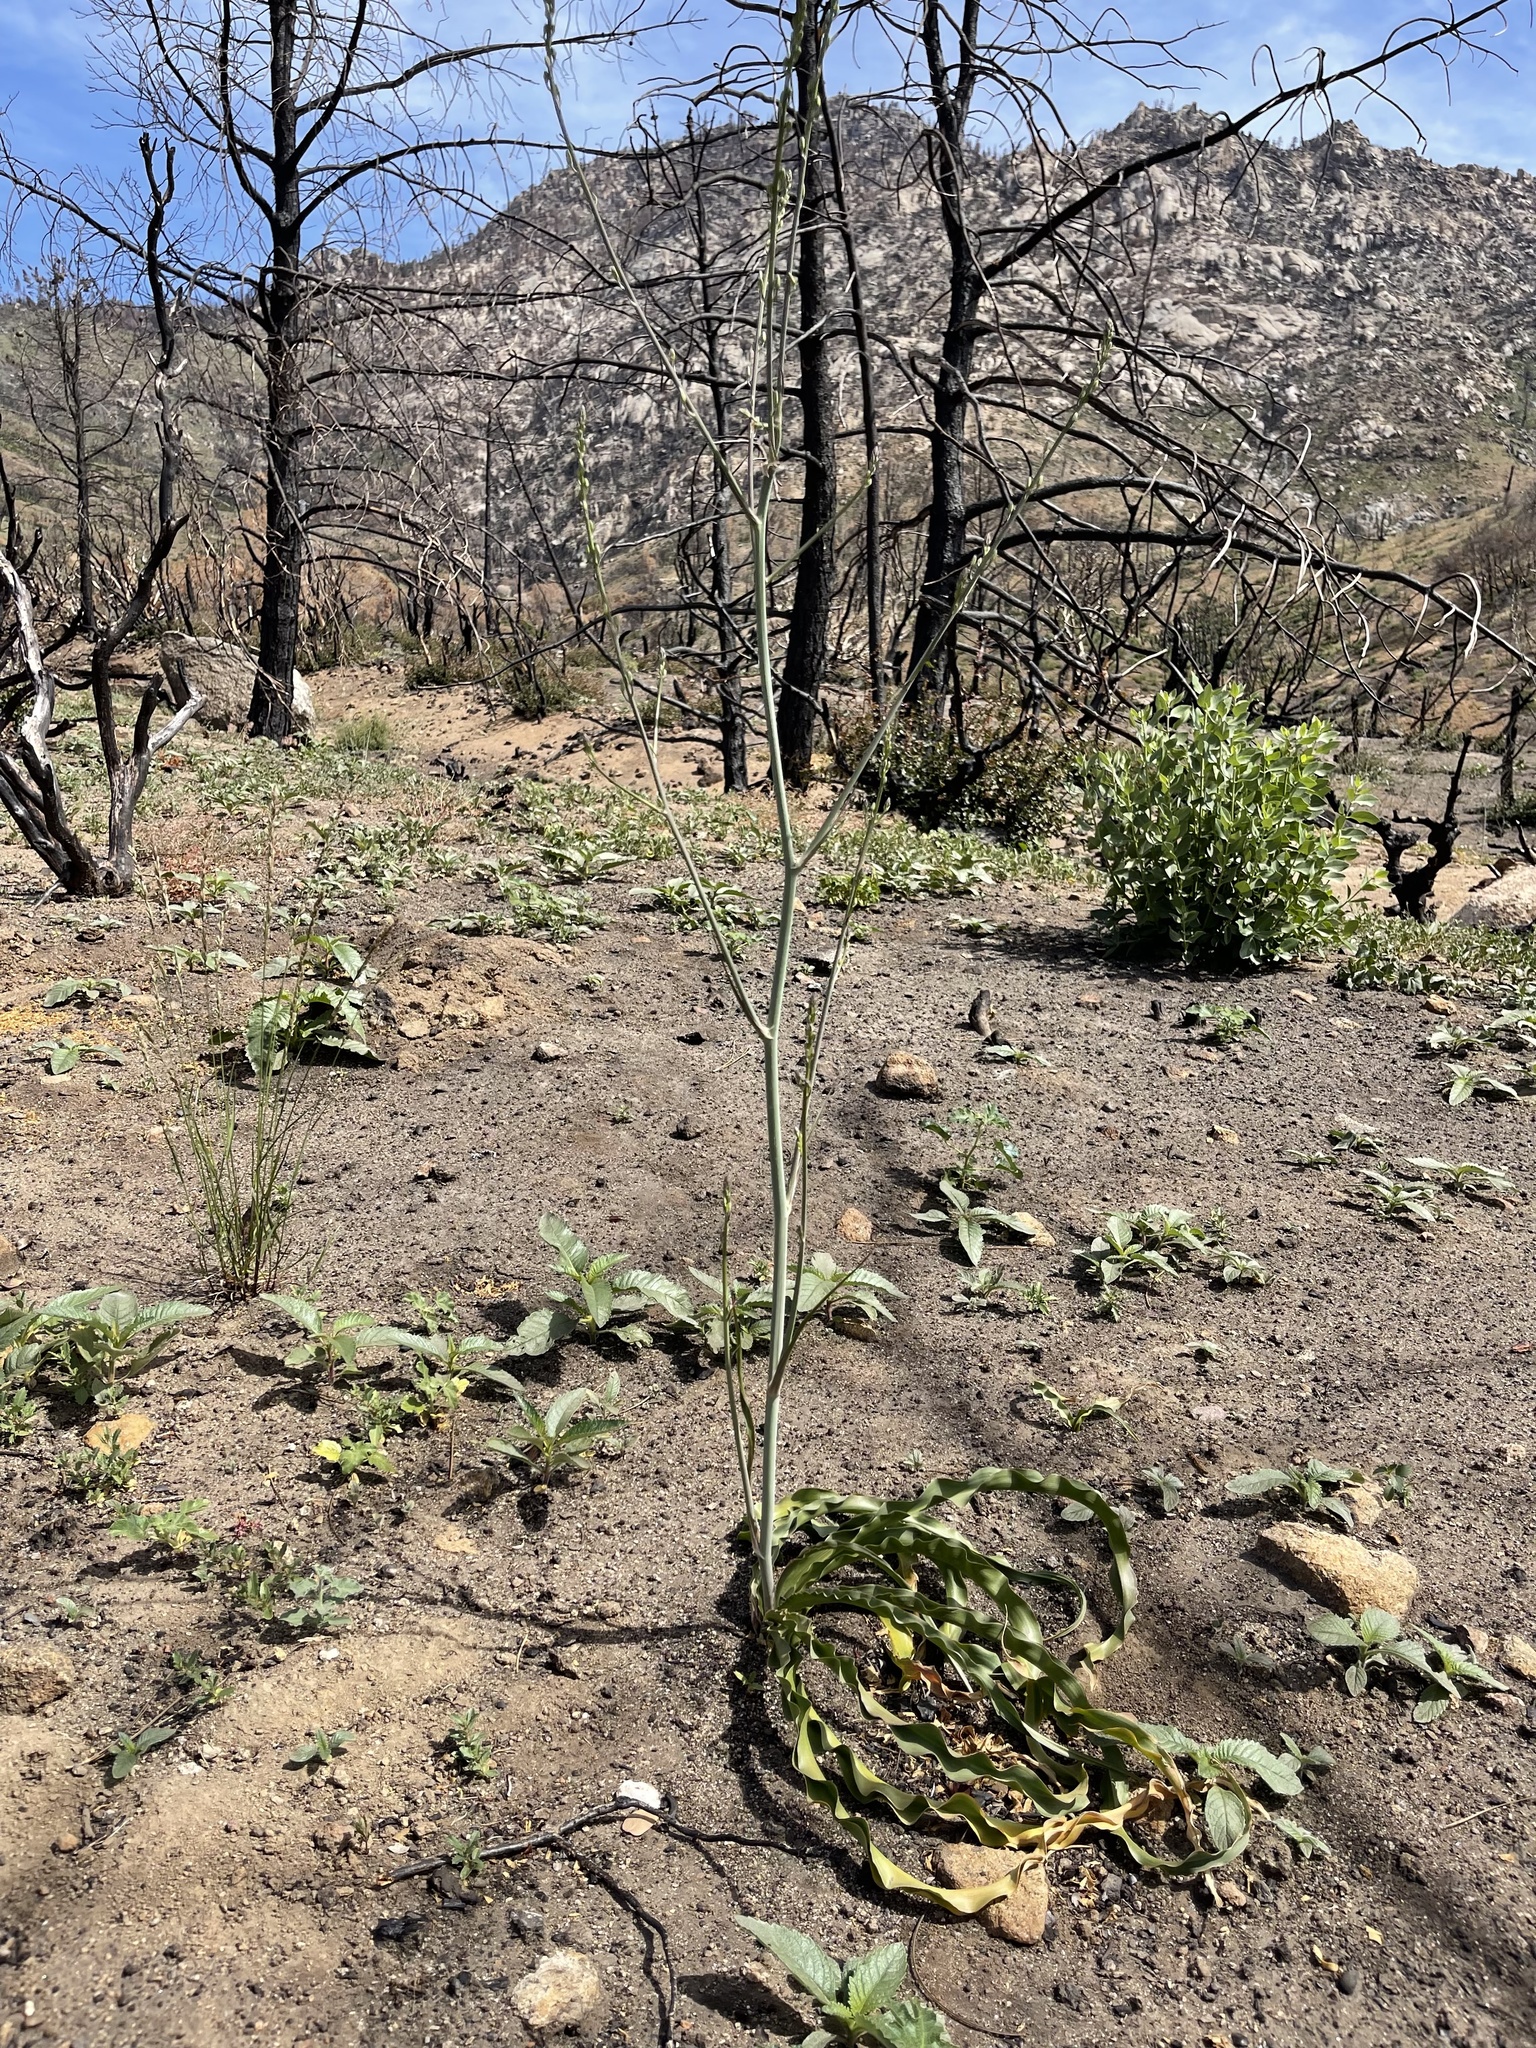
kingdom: Plantae
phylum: Tracheophyta
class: Liliopsida
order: Asparagales
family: Asparagaceae
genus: Chlorogalum
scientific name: Chlorogalum pomeridianum
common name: Amole
